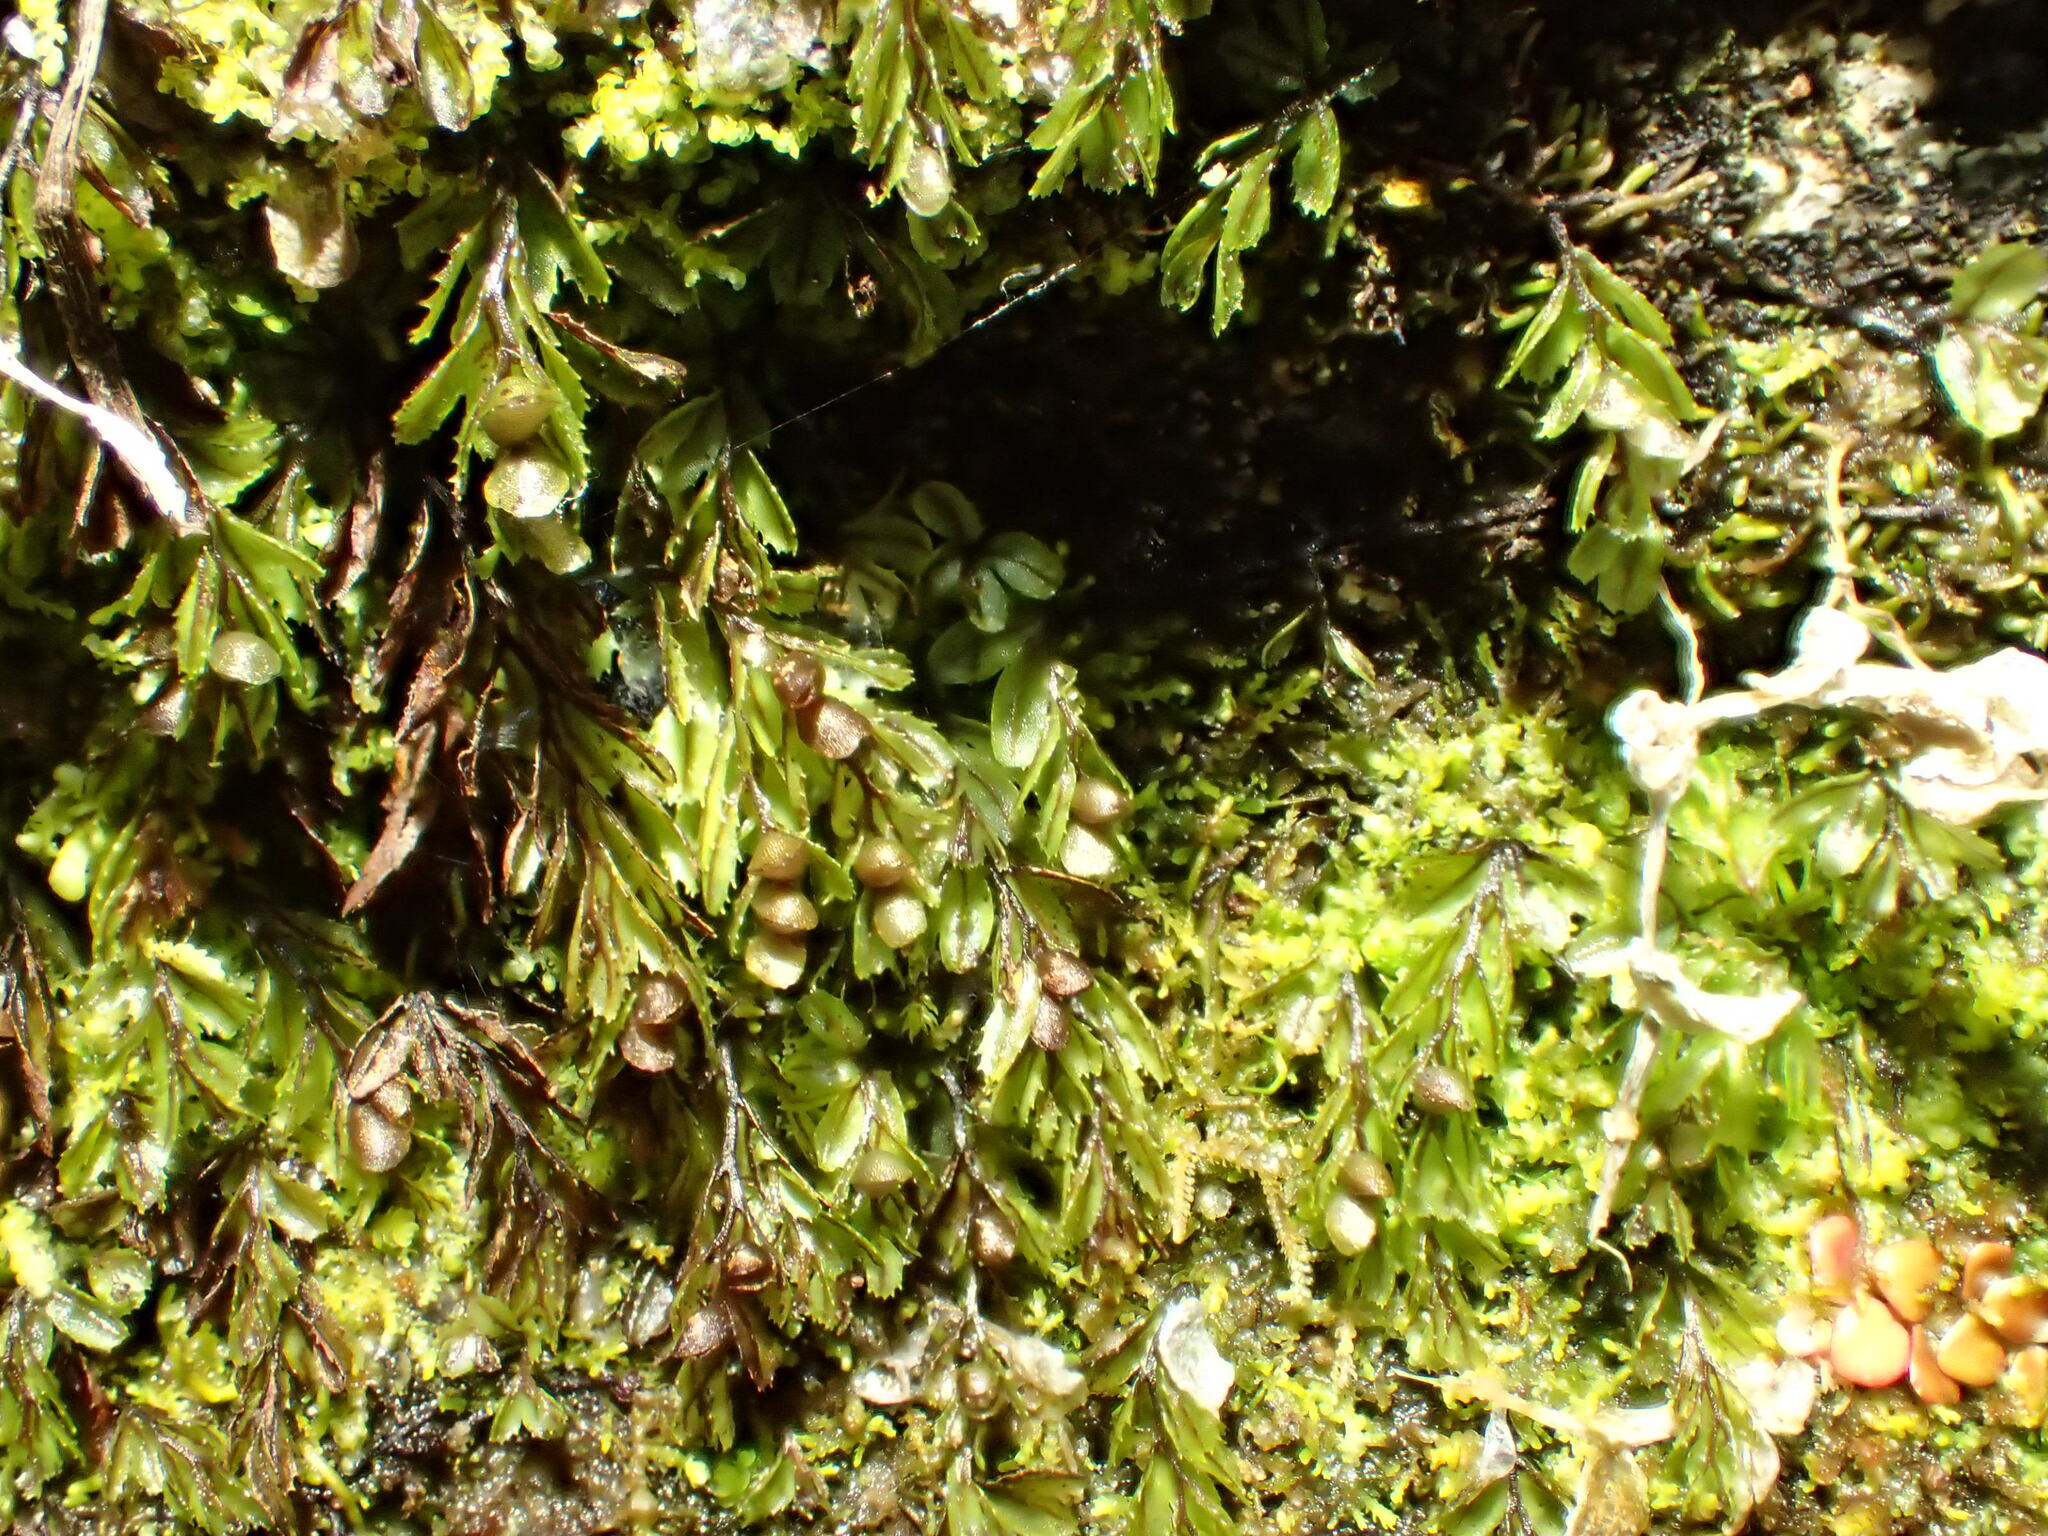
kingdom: Plantae
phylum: Tracheophyta
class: Polypodiopsida
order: Hymenophyllales
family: Hymenophyllaceae
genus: Hymenophyllum
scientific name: Hymenophyllum peltatum
